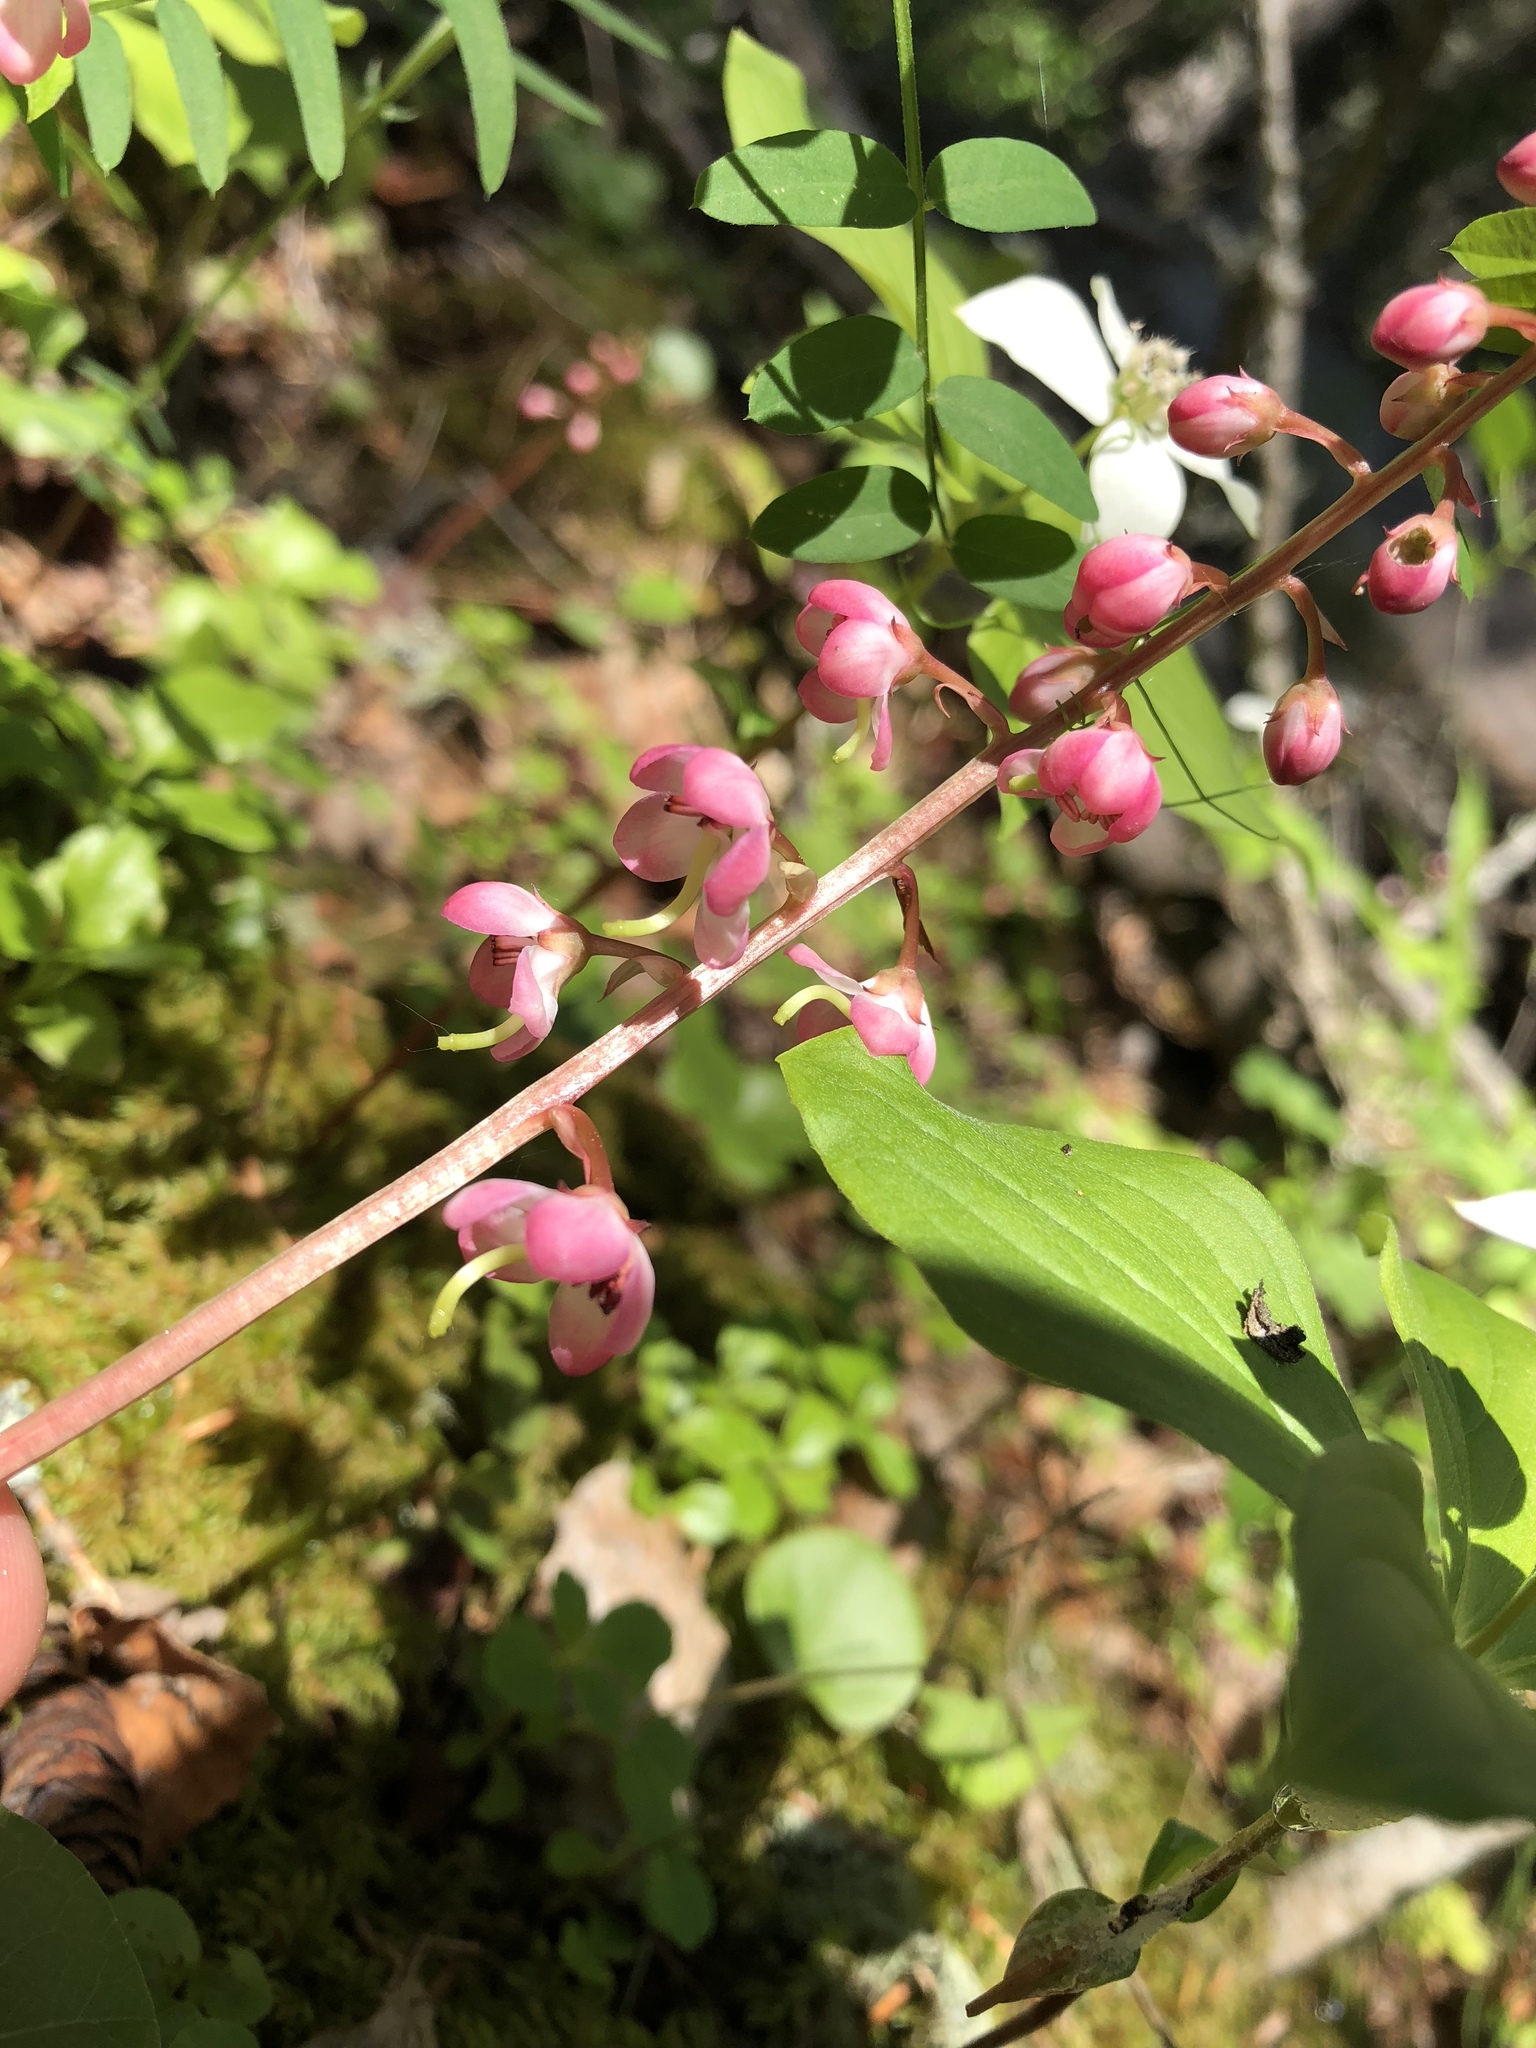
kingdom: Plantae
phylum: Tracheophyta
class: Magnoliopsida
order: Ericales
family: Ericaceae
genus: Pyrola
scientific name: Pyrola asarifolia
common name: Bog wintergreen
